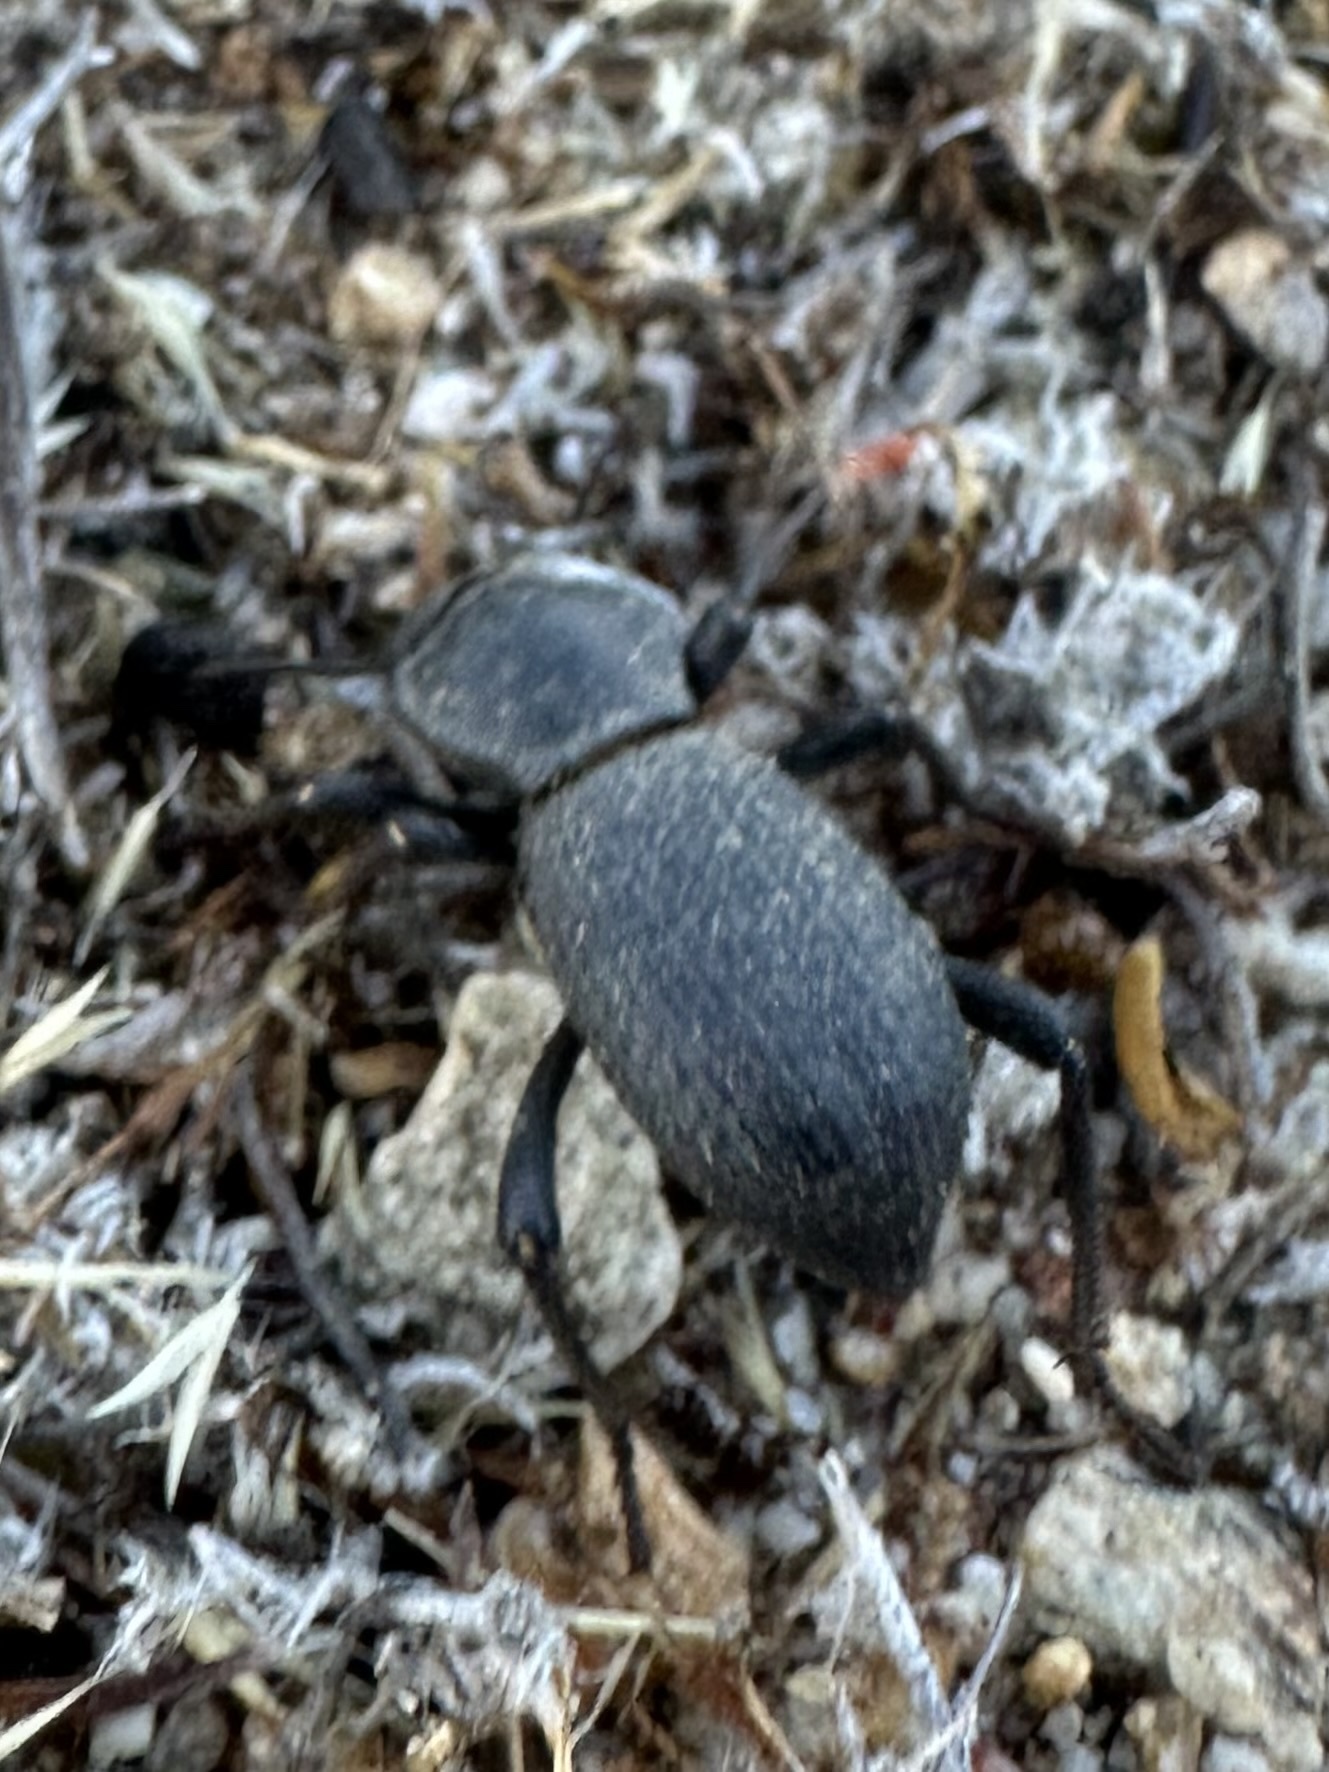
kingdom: Animalia
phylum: Arthropoda
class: Insecta
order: Coleoptera
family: Tenebrionidae
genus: Cryptoglossa
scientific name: Cryptoglossa muricata
